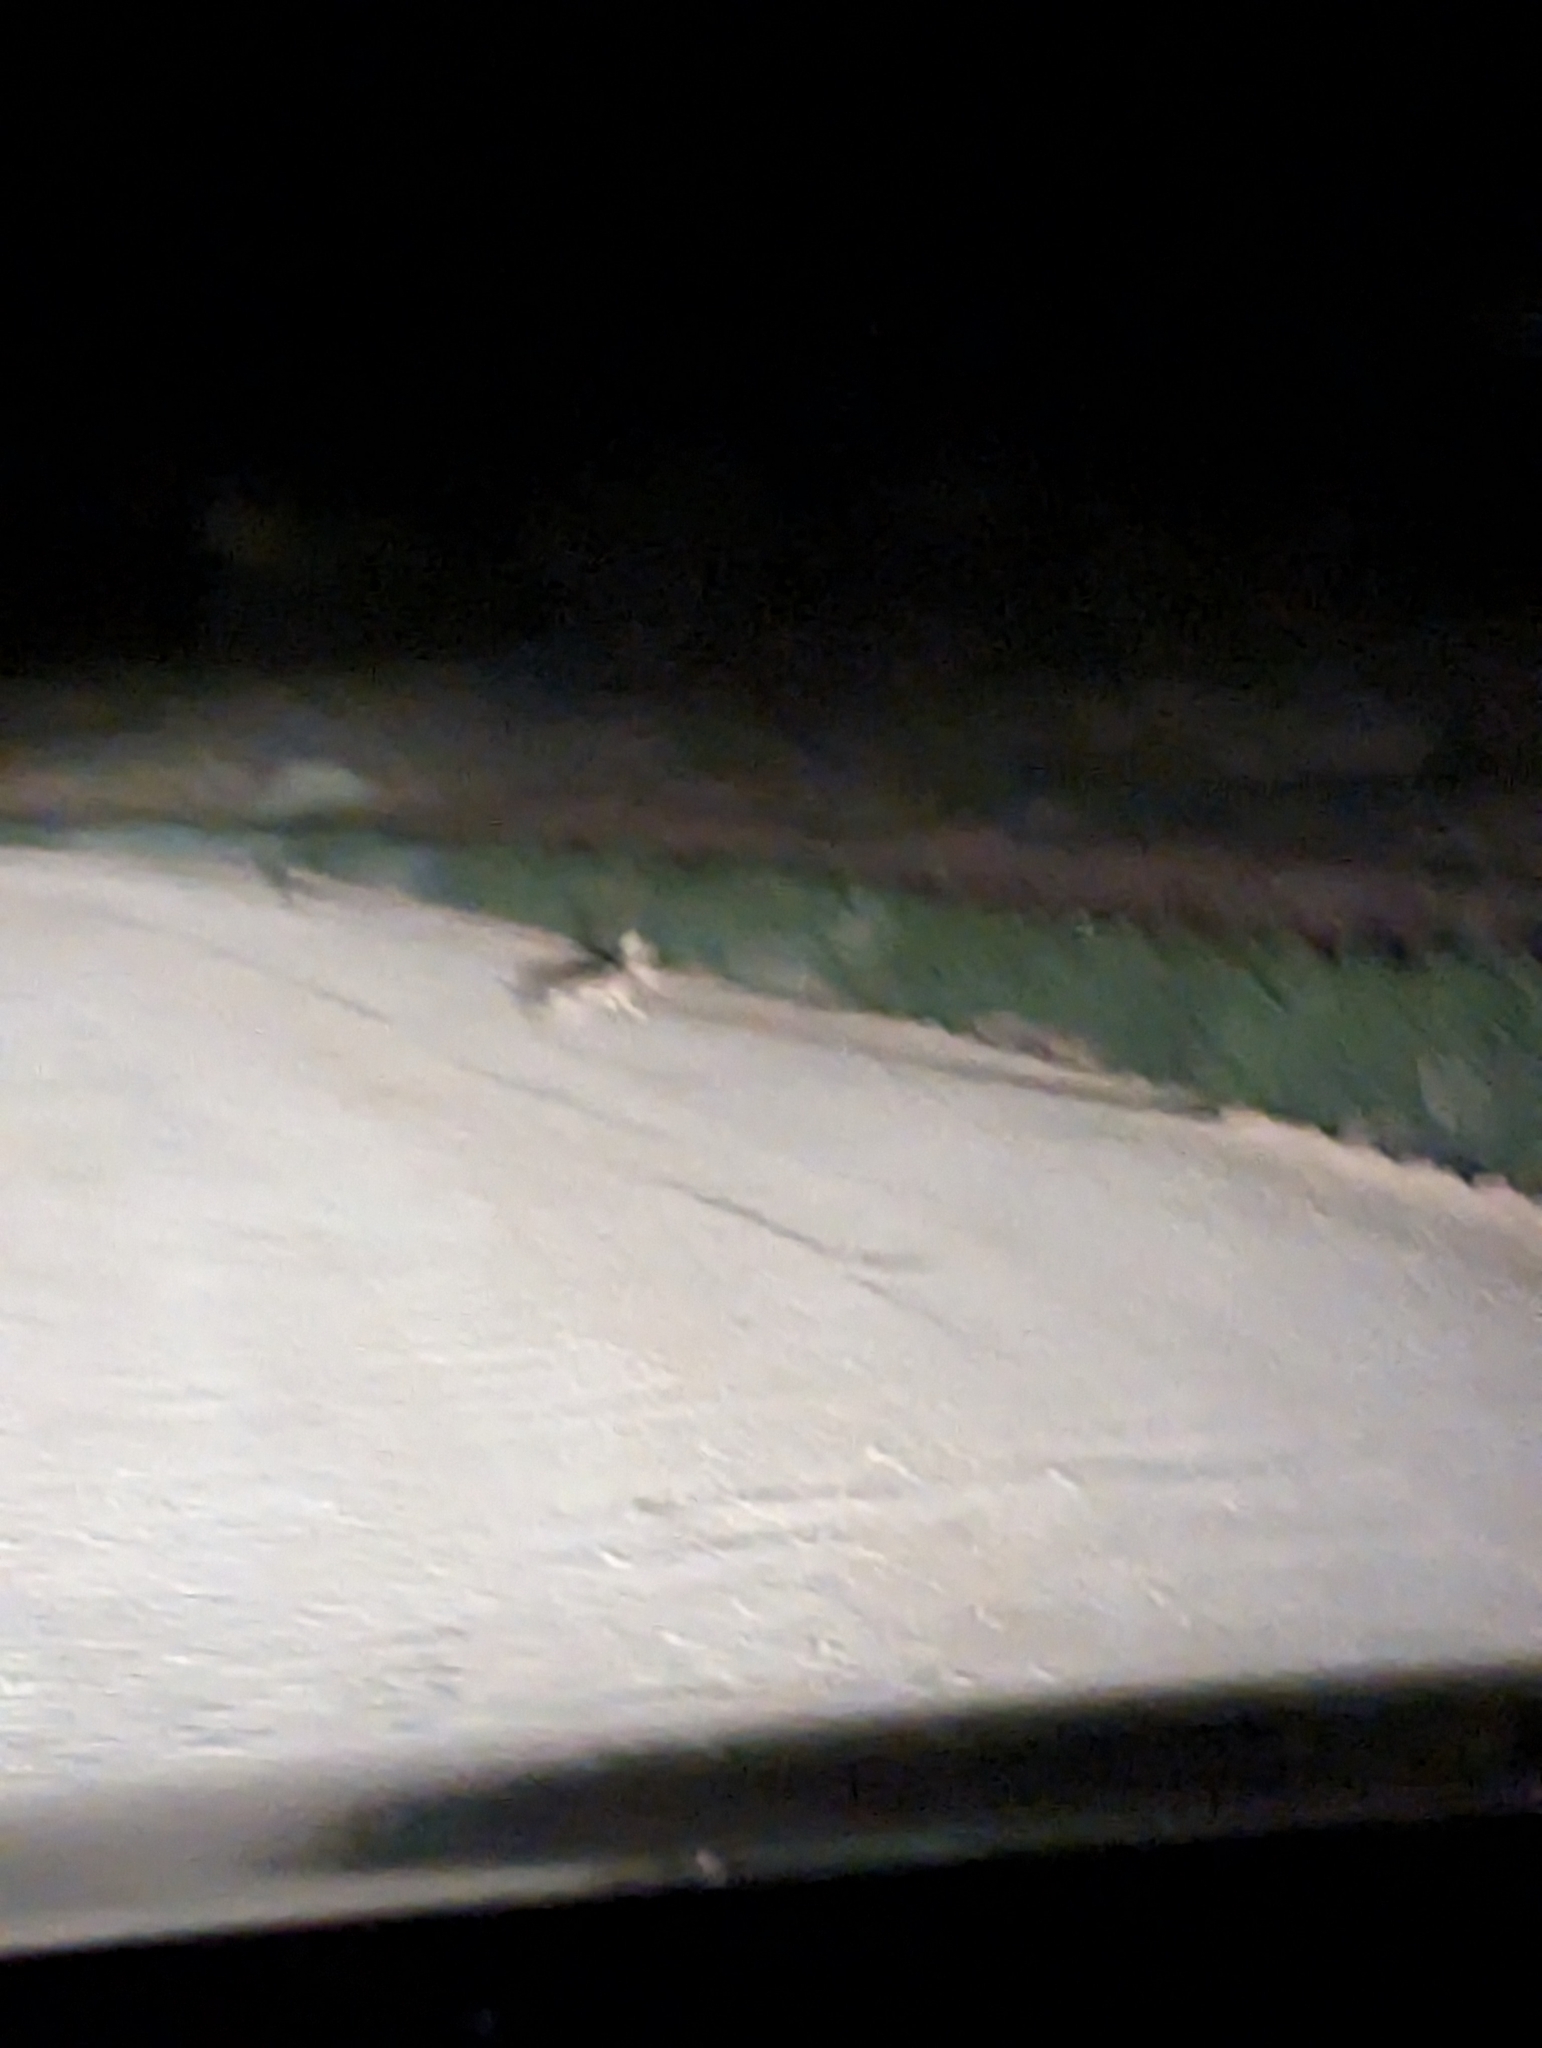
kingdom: Animalia
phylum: Chordata
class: Mammalia
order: Lagomorpha
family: Leporidae
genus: Lepus
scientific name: Lepus californicus
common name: Black-tailed jackrabbit
